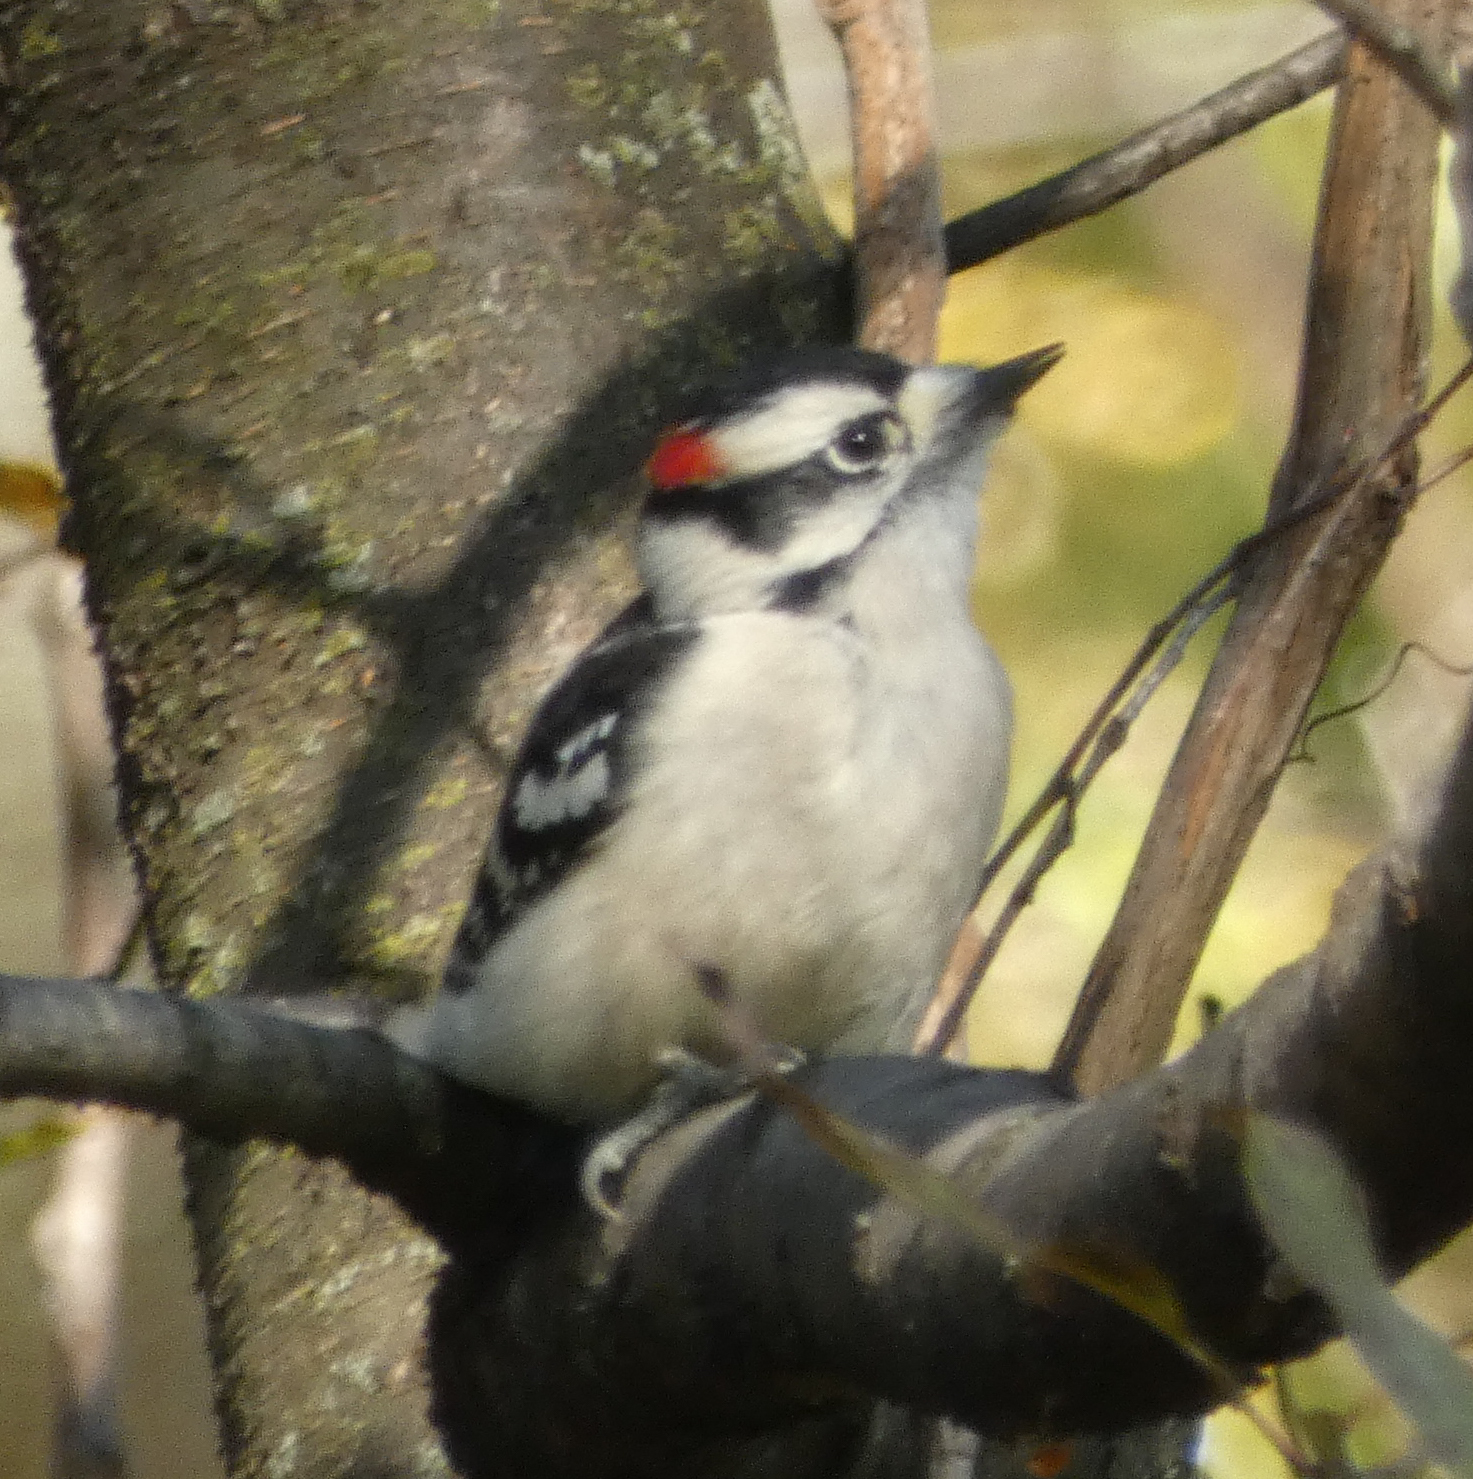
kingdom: Animalia
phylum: Chordata
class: Aves
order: Piciformes
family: Picidae
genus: Dryobates
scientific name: Dryobates pubescens
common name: Downy woodpecker
